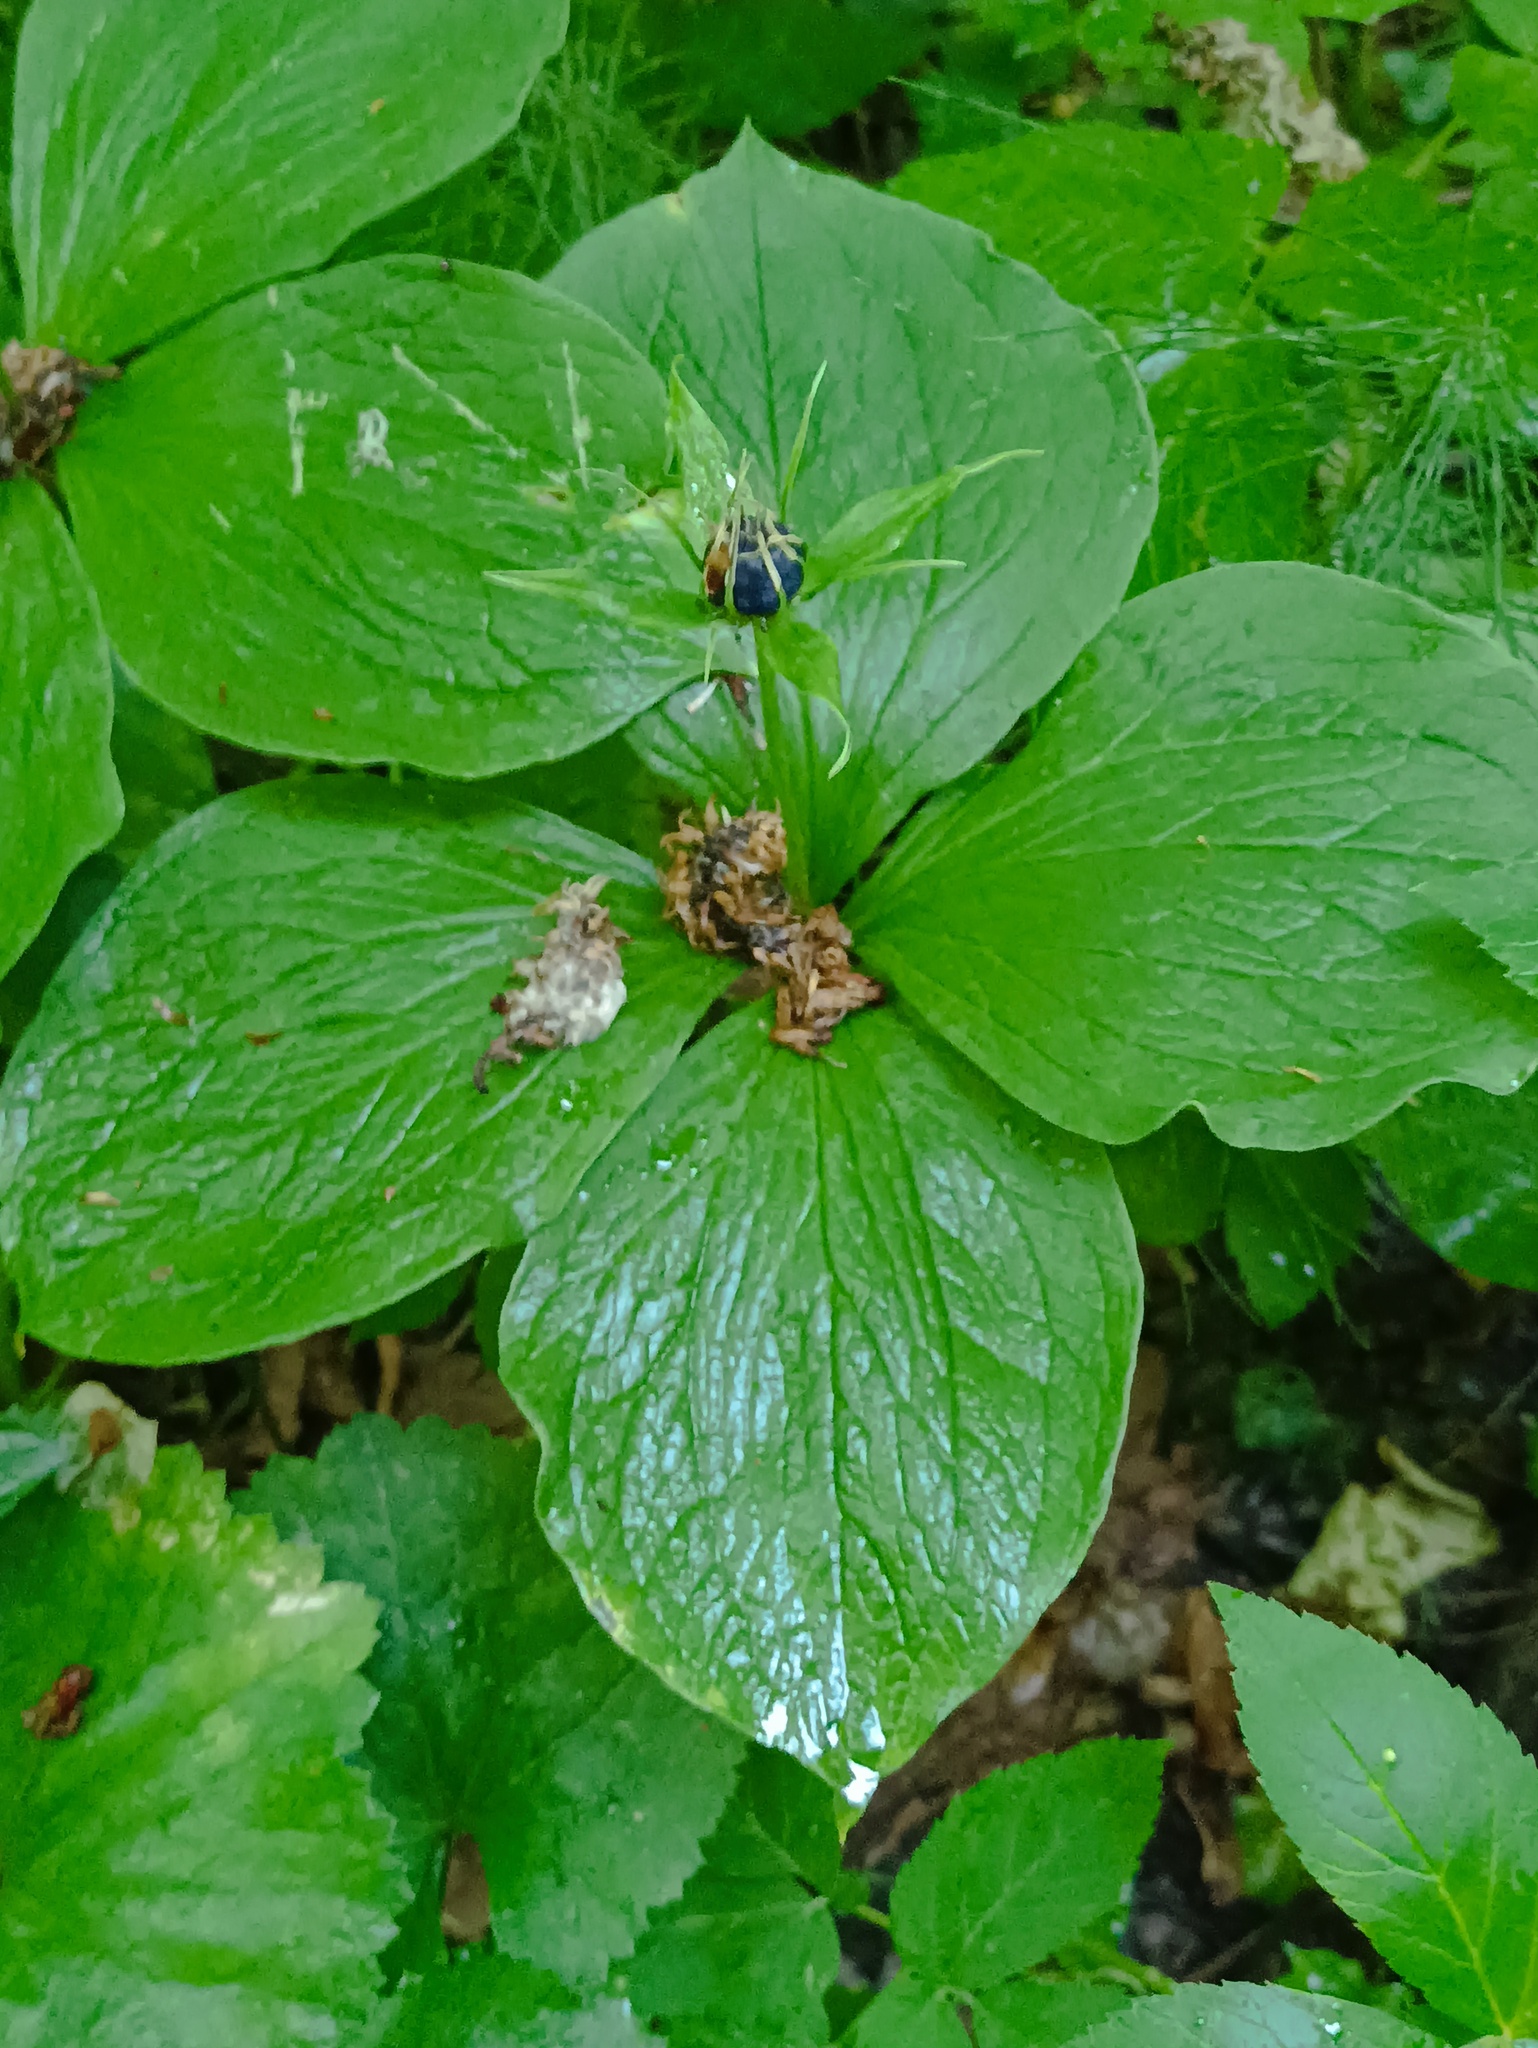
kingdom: Plantae
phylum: Tracheophyta
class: Liliopsida
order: Liliales
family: Melanthiaceae
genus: Paris
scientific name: Paris quadrifolia
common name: Herb-paris
